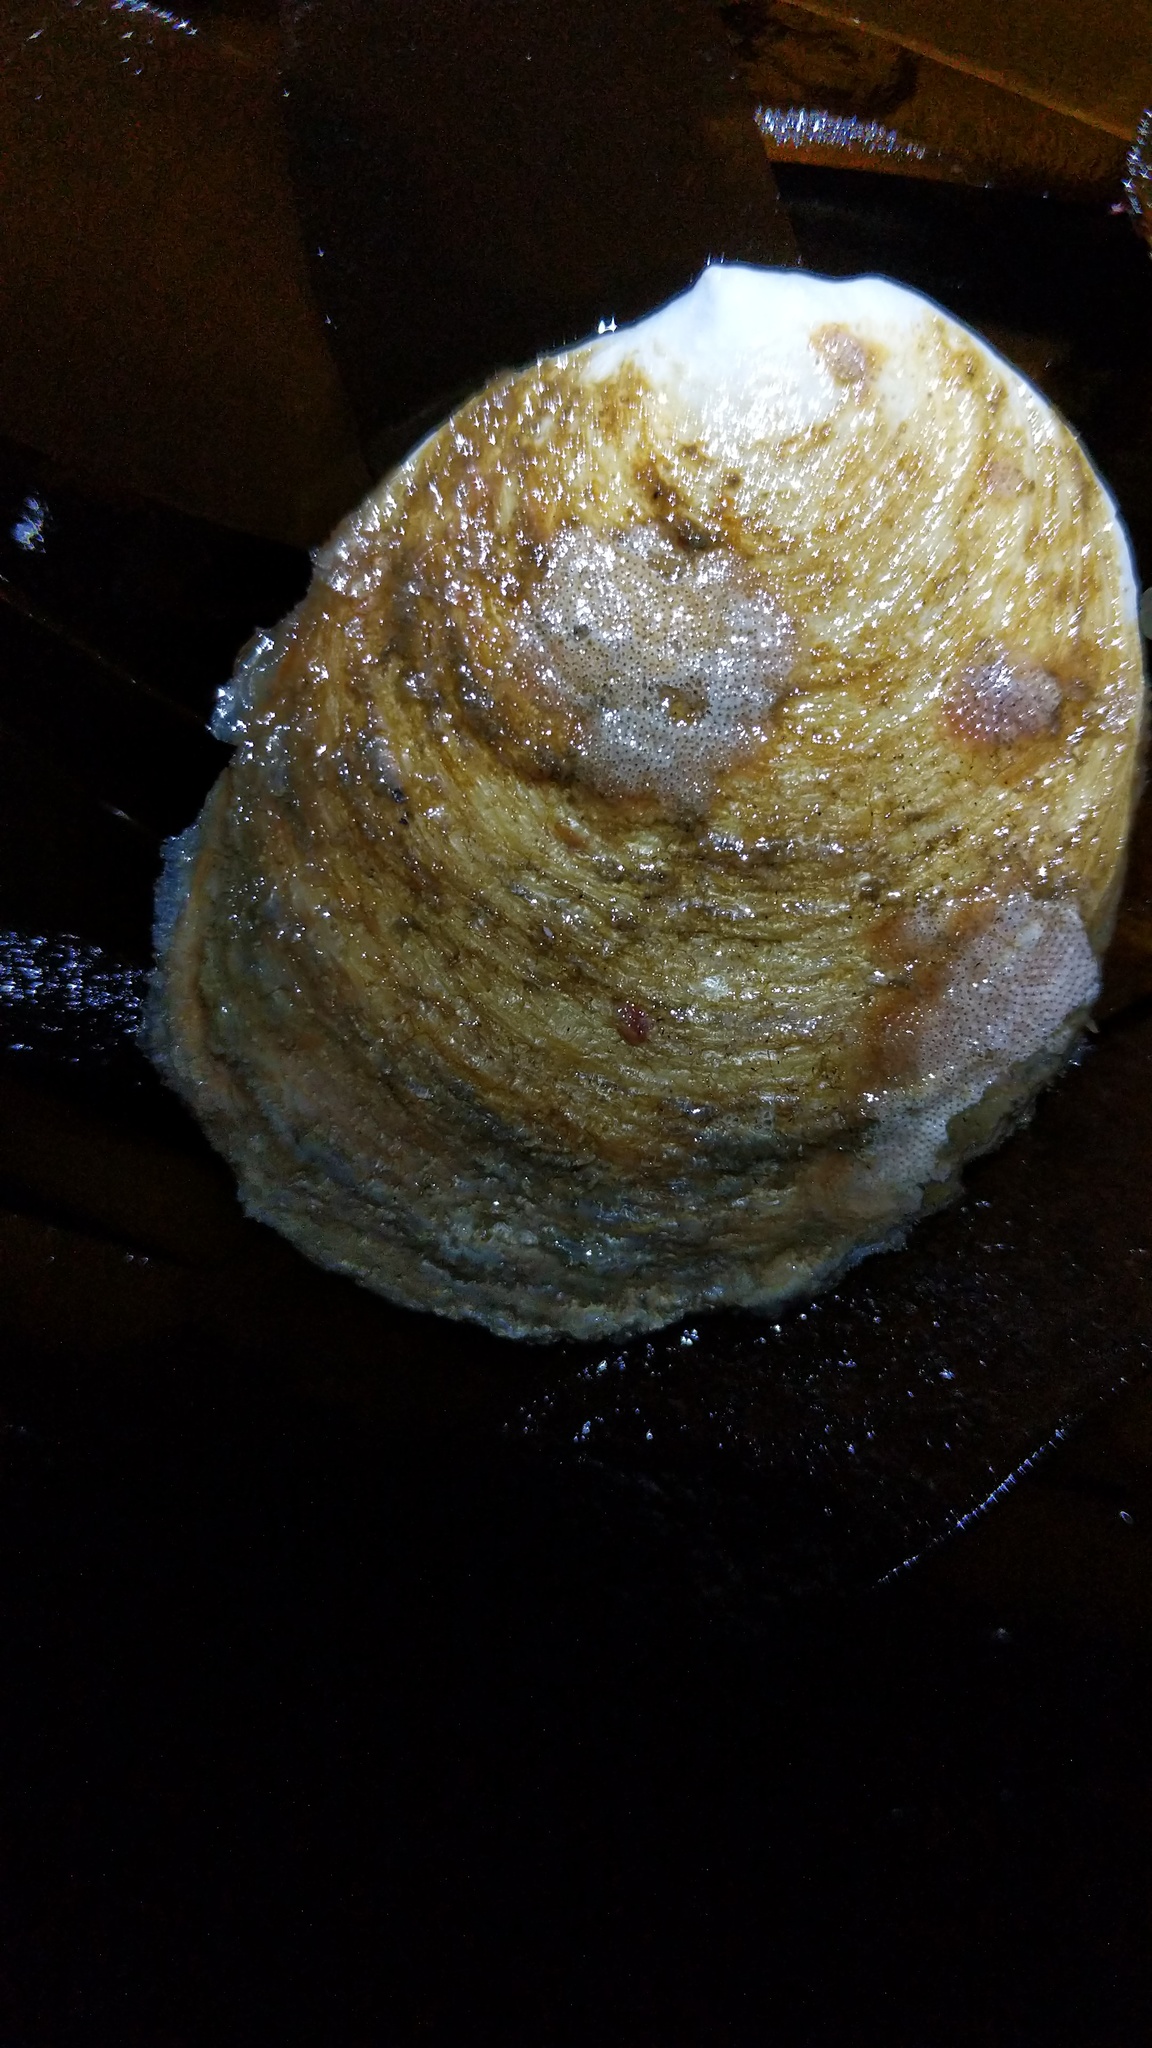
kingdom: Animalia
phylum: Mollusca
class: Gastropoda
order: Littorinimorpha
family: Calyptraeidae
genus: Crepidula
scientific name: Crepidula nummaria
